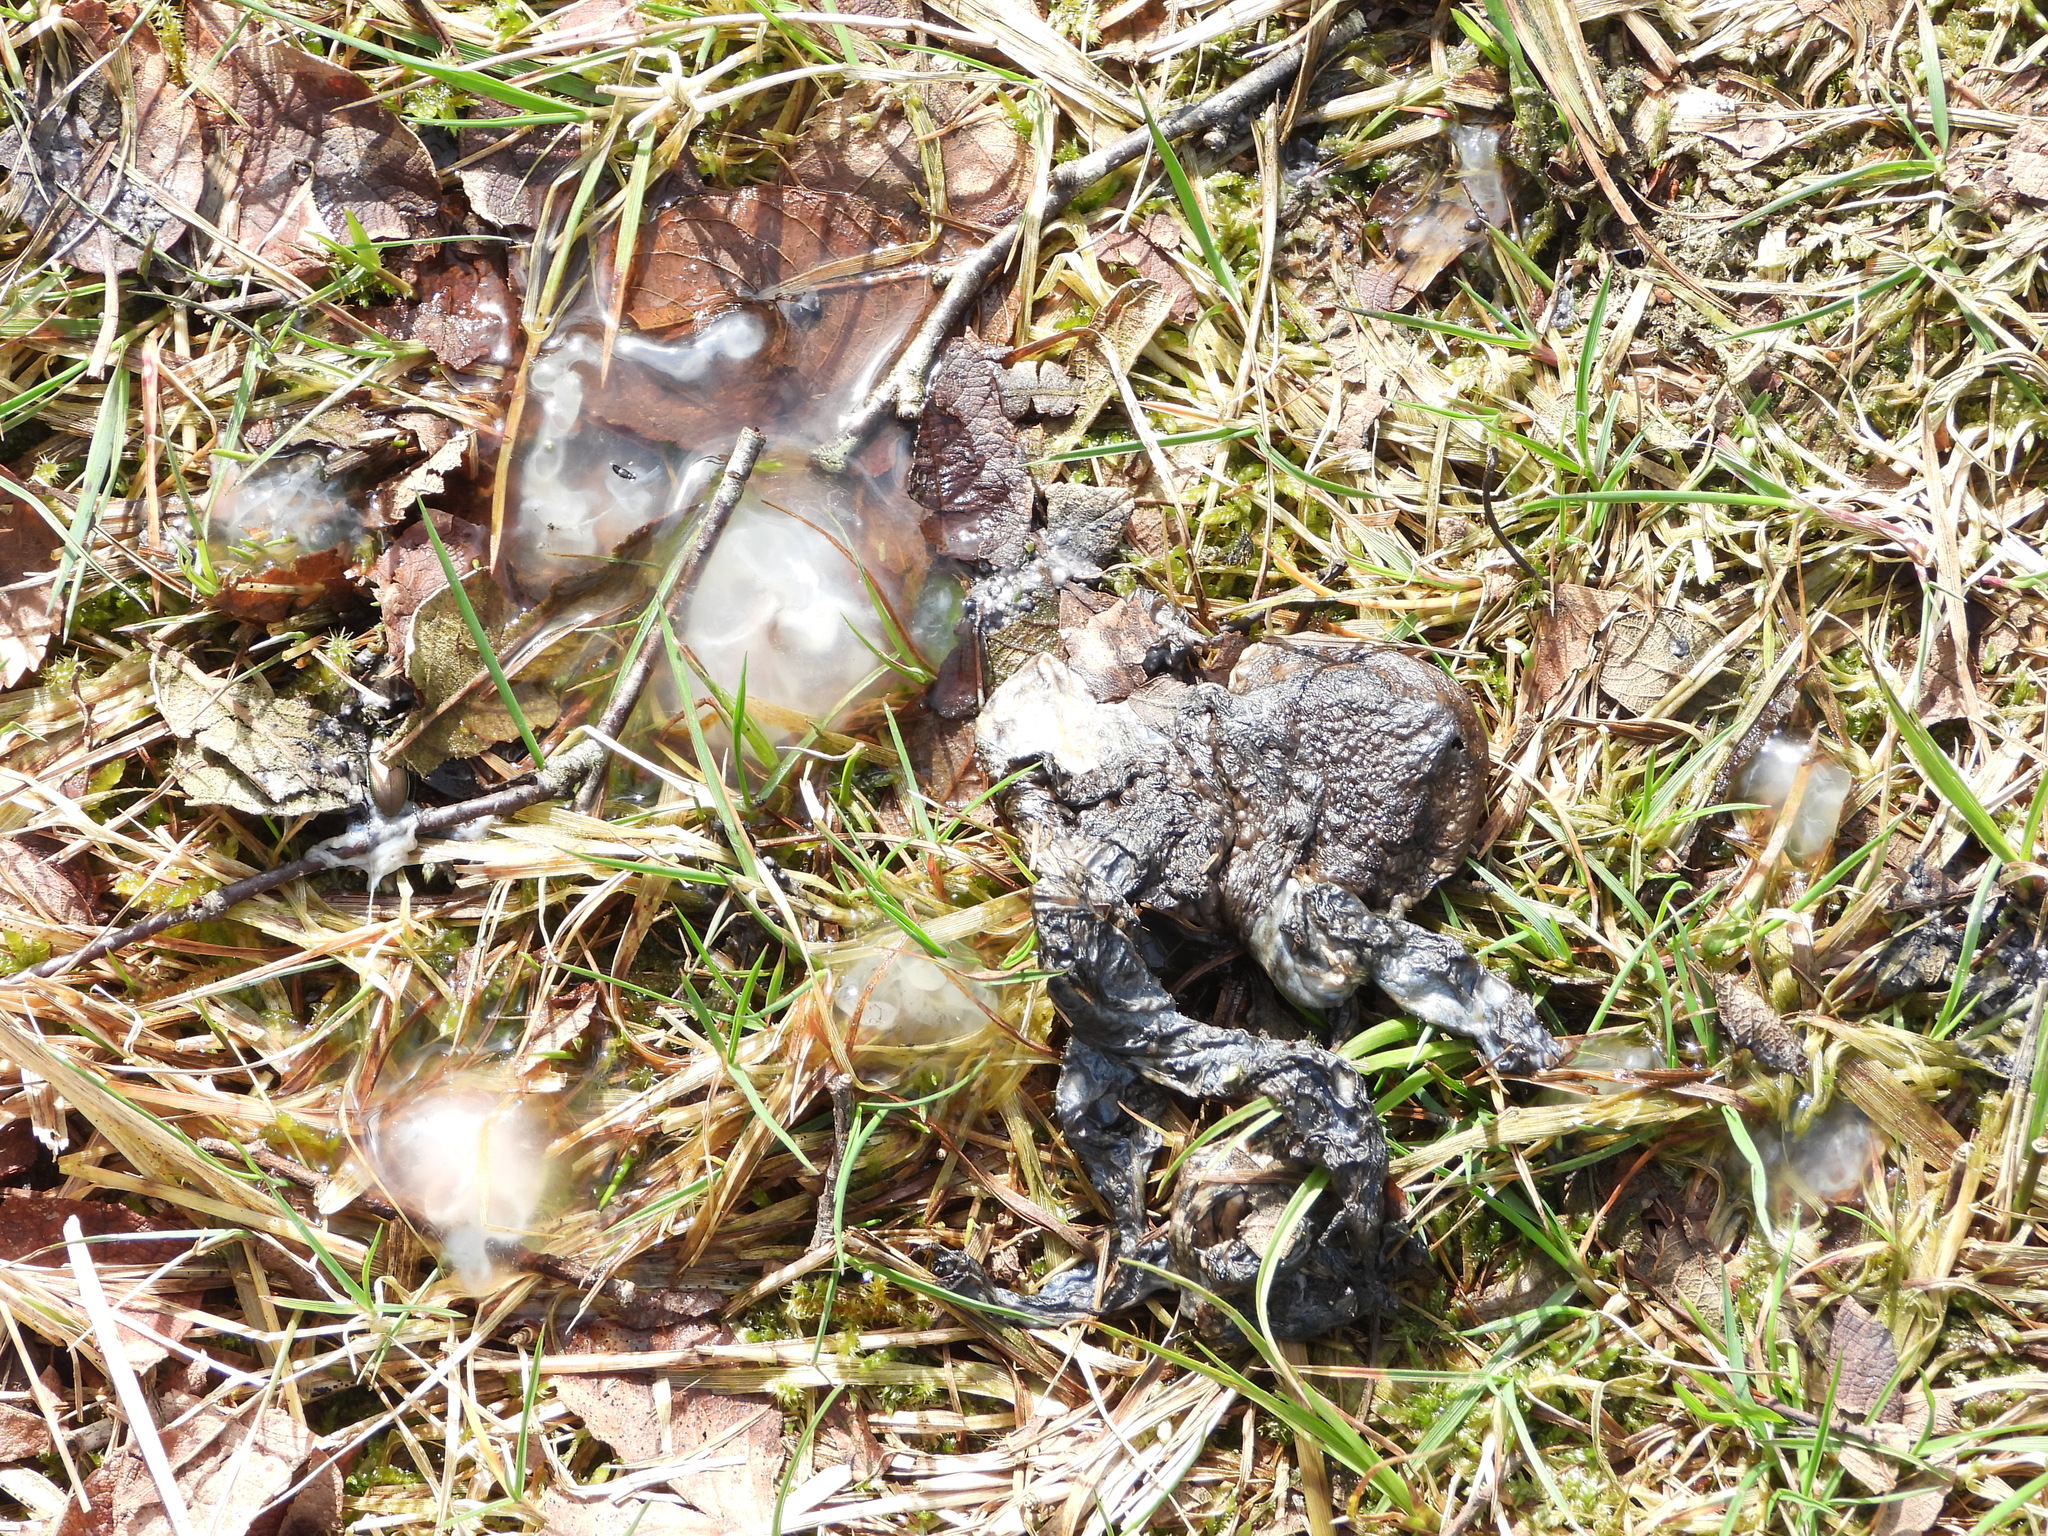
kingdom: Animalia
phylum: Chordata
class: Amphibia
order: Anura
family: Bufonidae
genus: Bufo
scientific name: Bufo bufo
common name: Common toad
